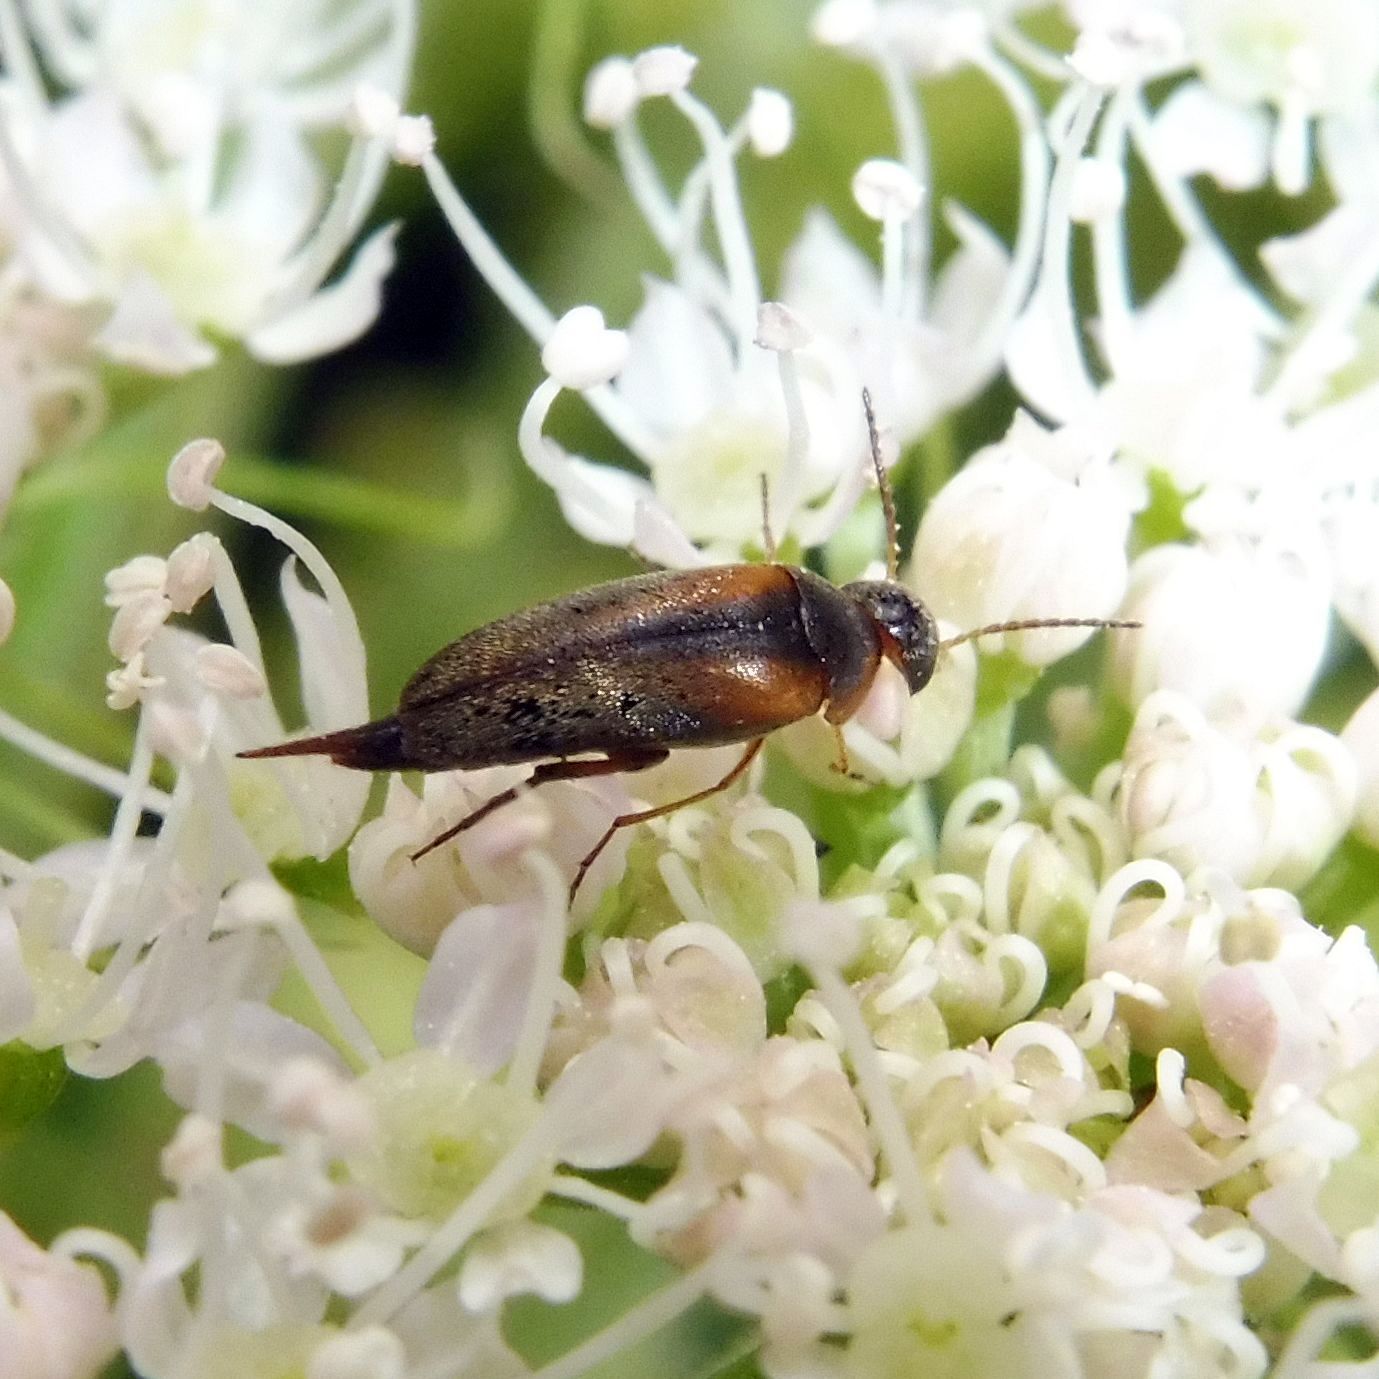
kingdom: Animalia
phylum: Arthropoda
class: Insecta
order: Coleoptera
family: Mordellidae
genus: Mordellistena
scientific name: Mordellistena variegata
